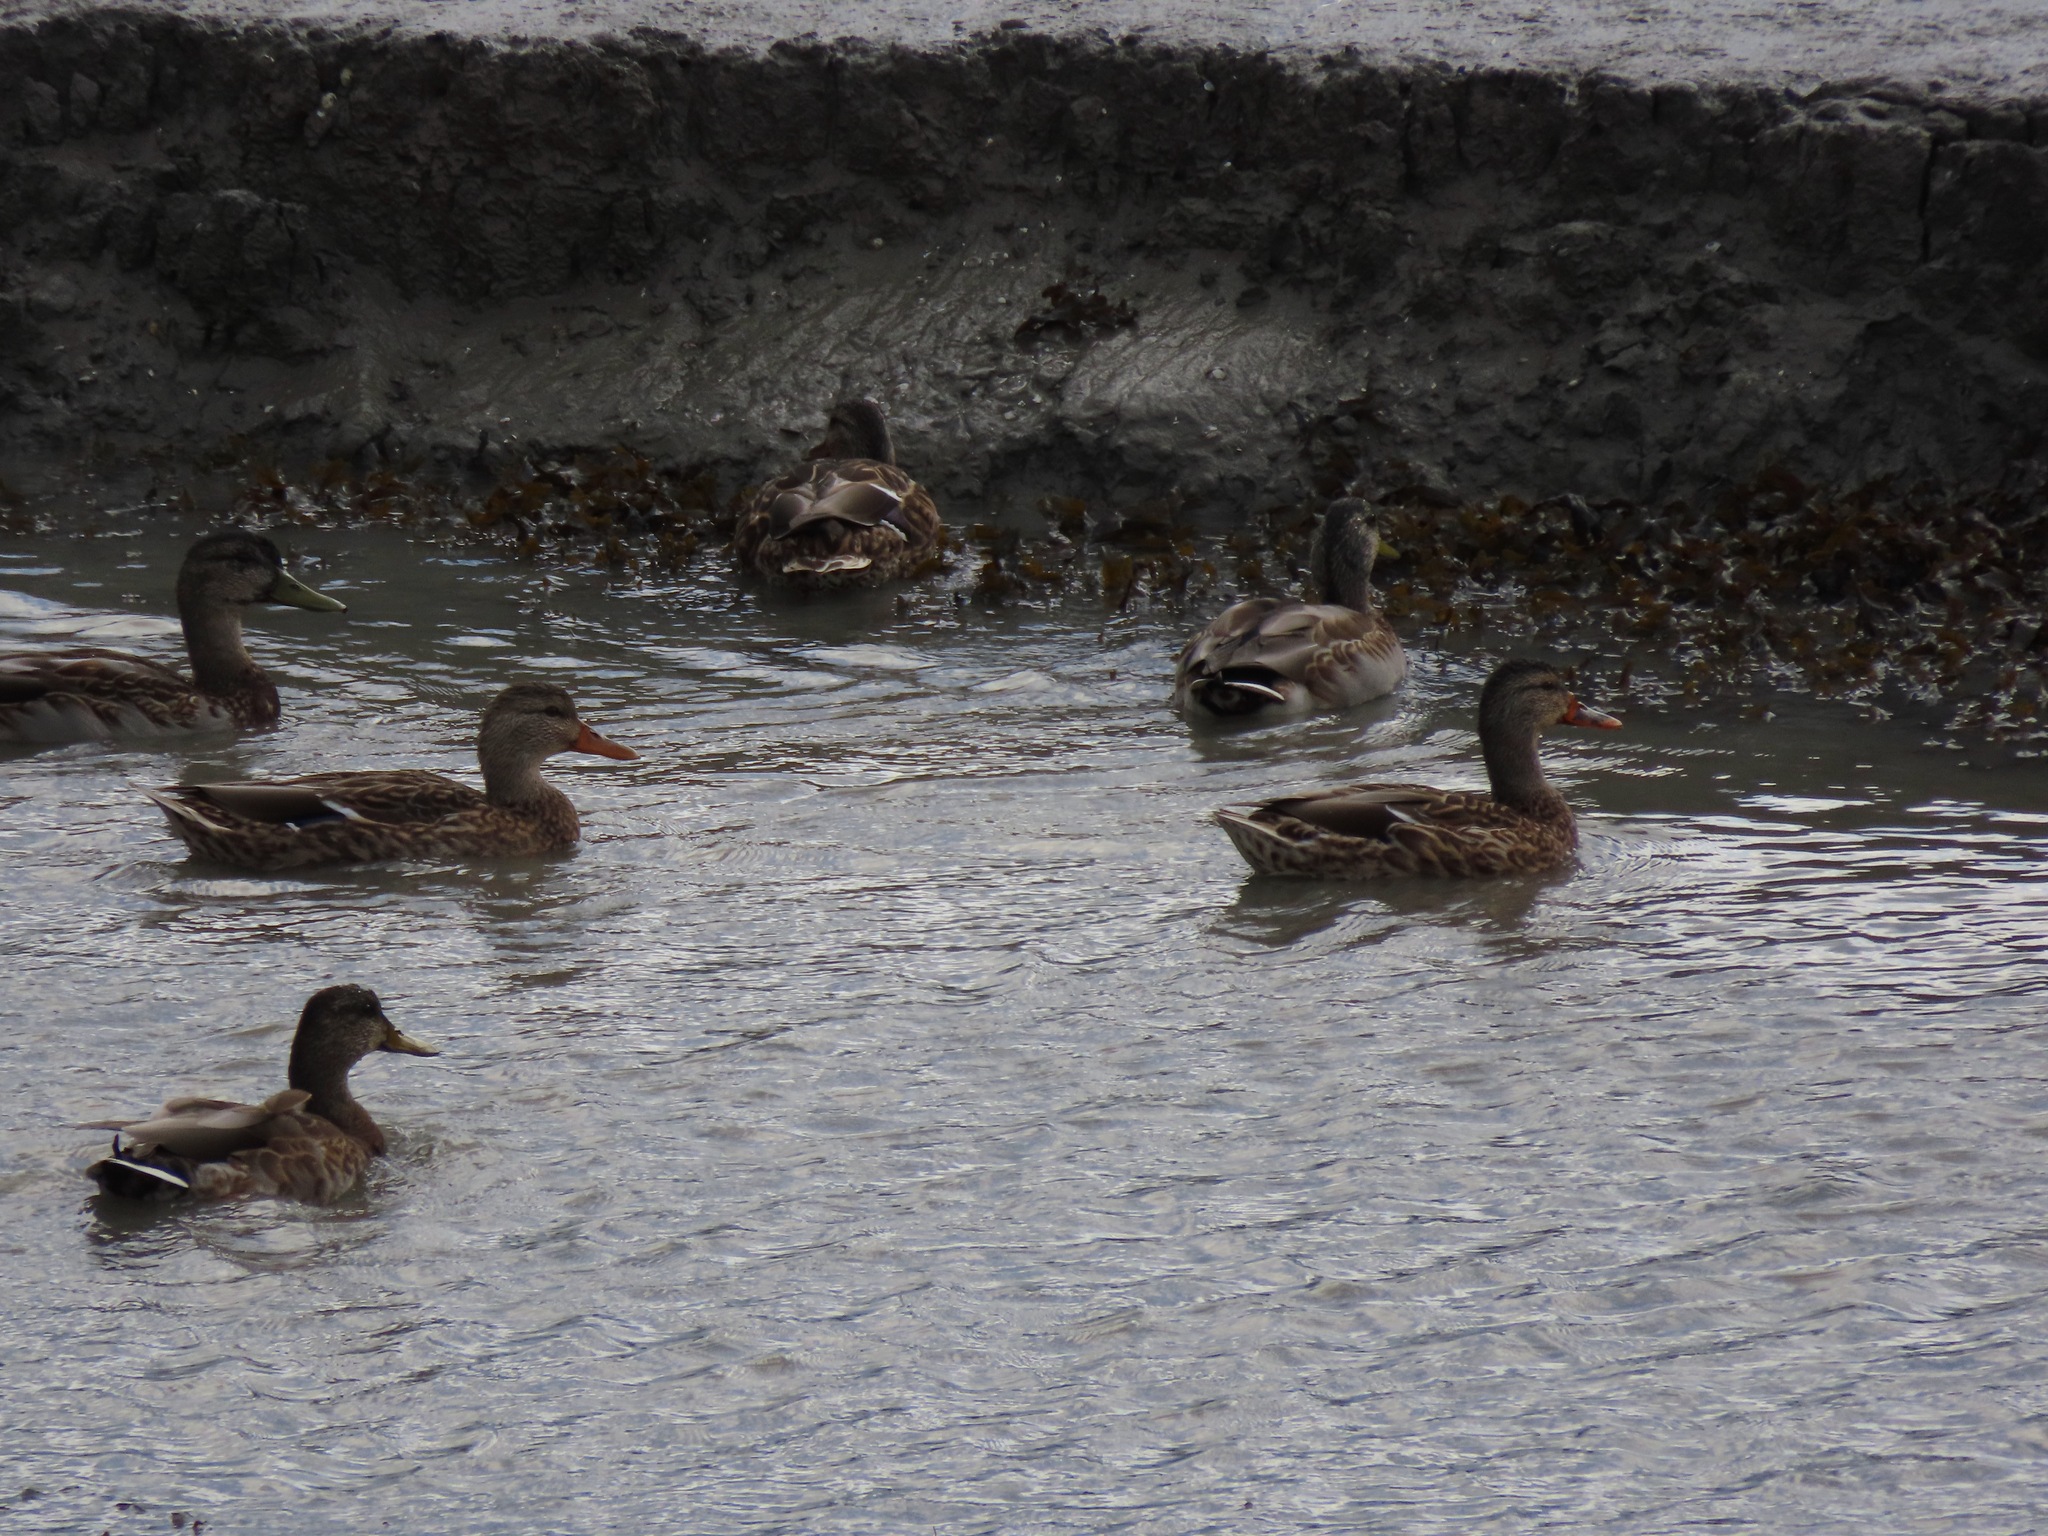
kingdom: Animalia
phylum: Chordata
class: Aves
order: Anseriformes
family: Anatidae
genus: Anas
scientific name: Anas platyrhynchos
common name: Mallard
